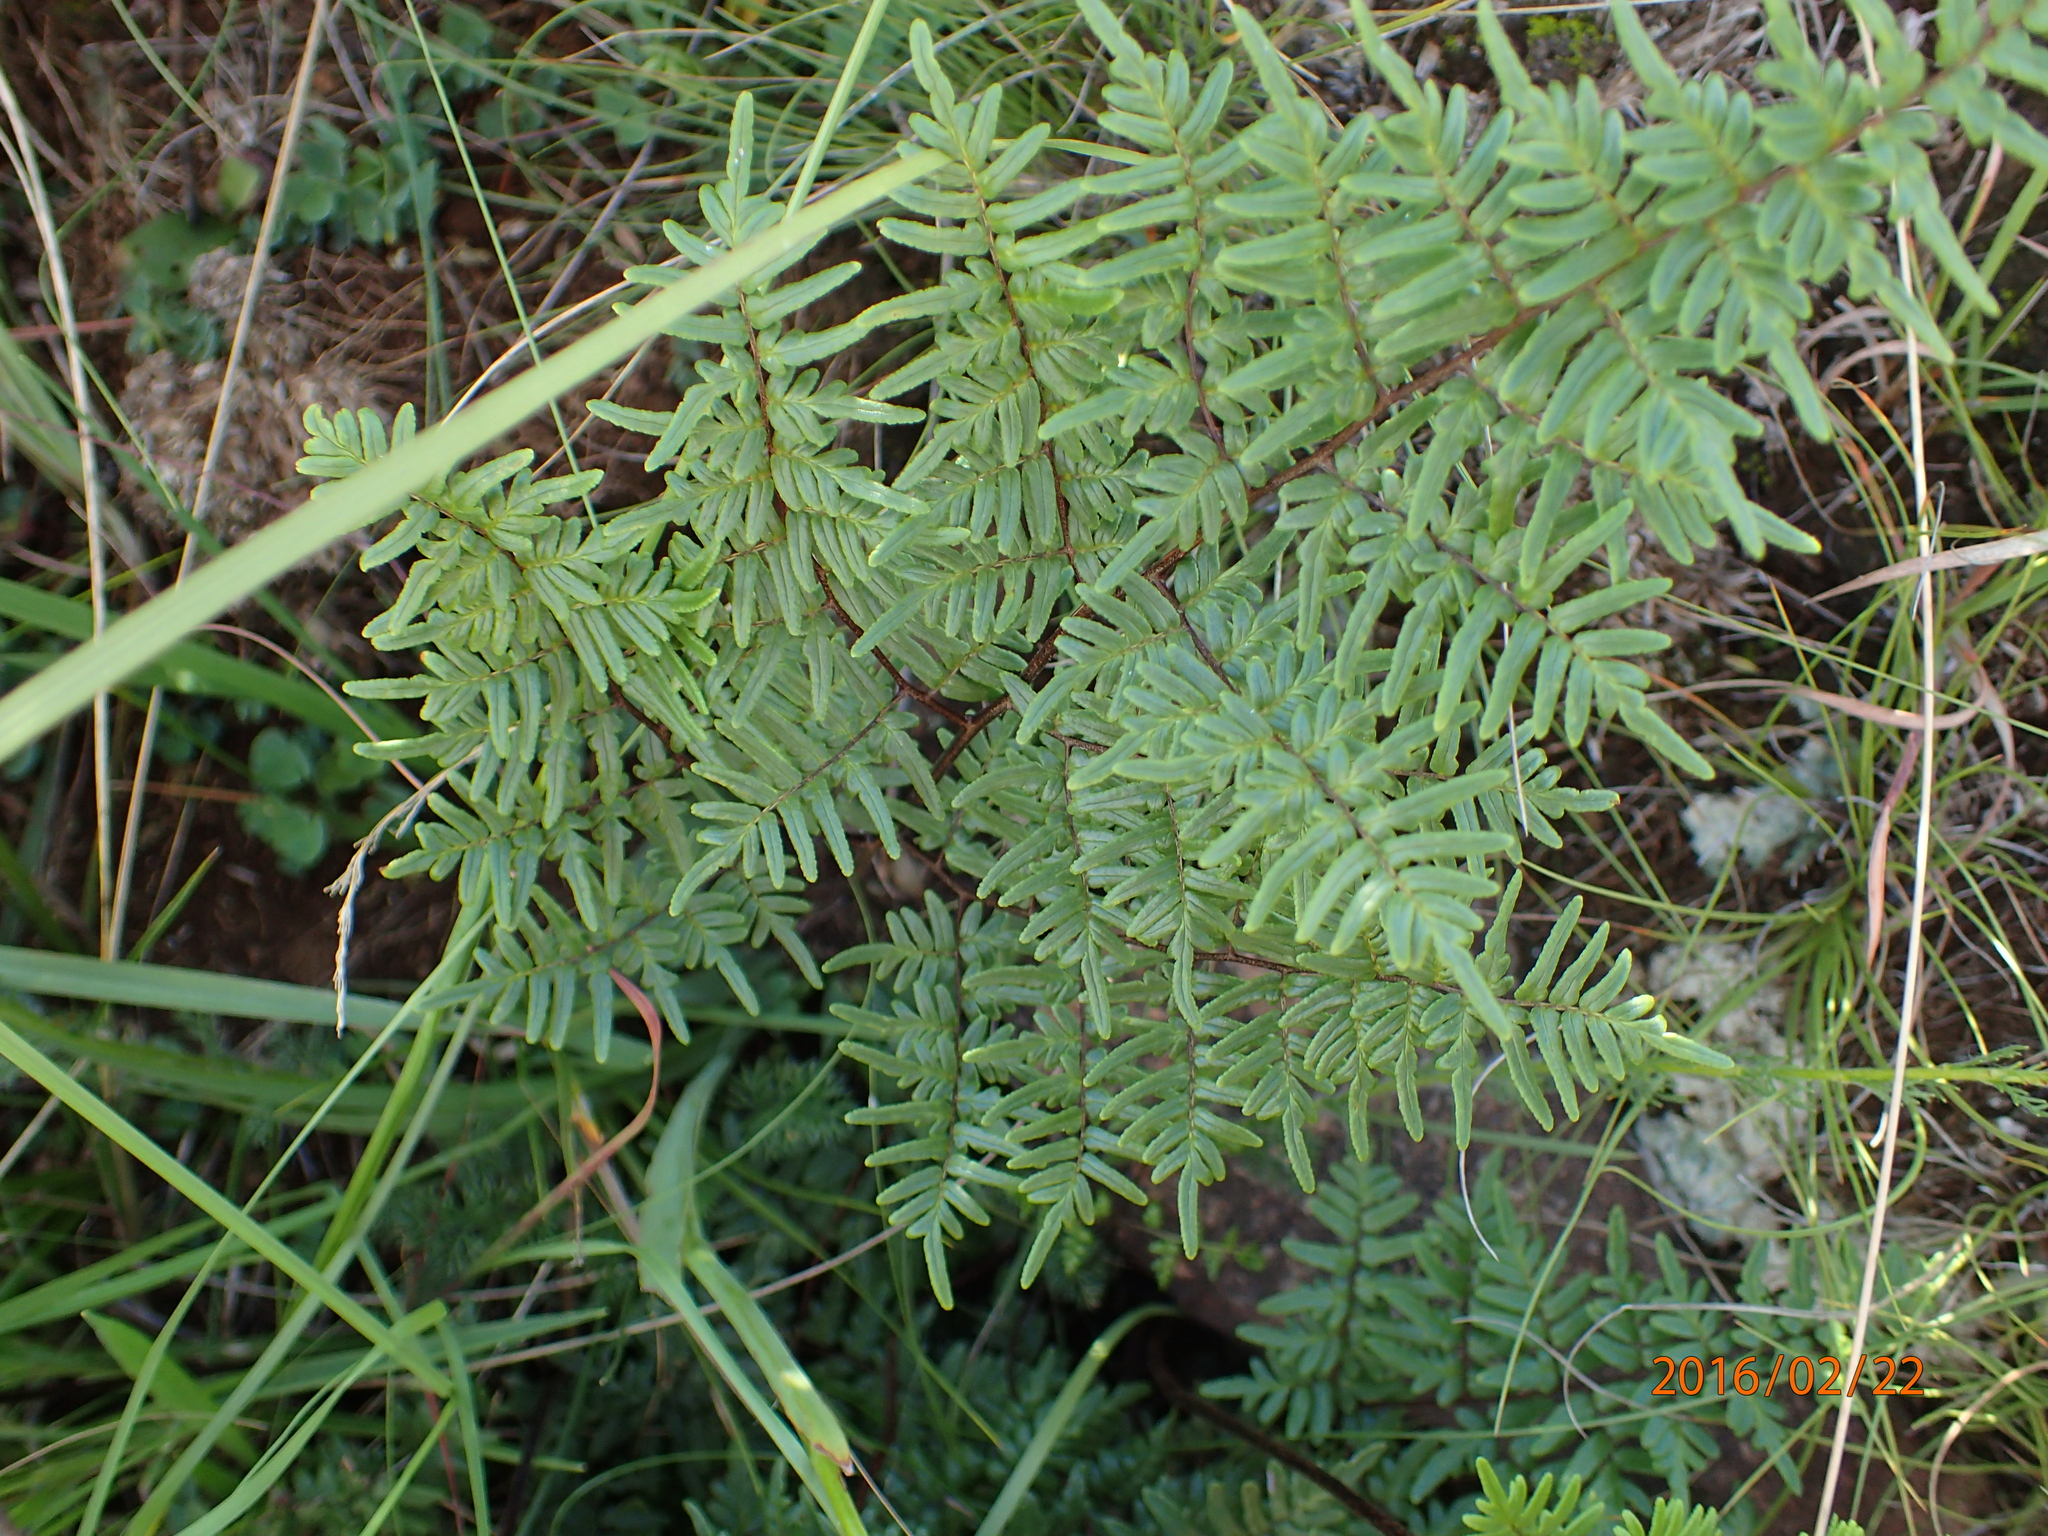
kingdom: Plantae
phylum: Tracheophyta
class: Polypodiopsida
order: Polypodiales
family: Pteridaceae
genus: Cheilanthes
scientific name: Cheilanthes quadripinnata
